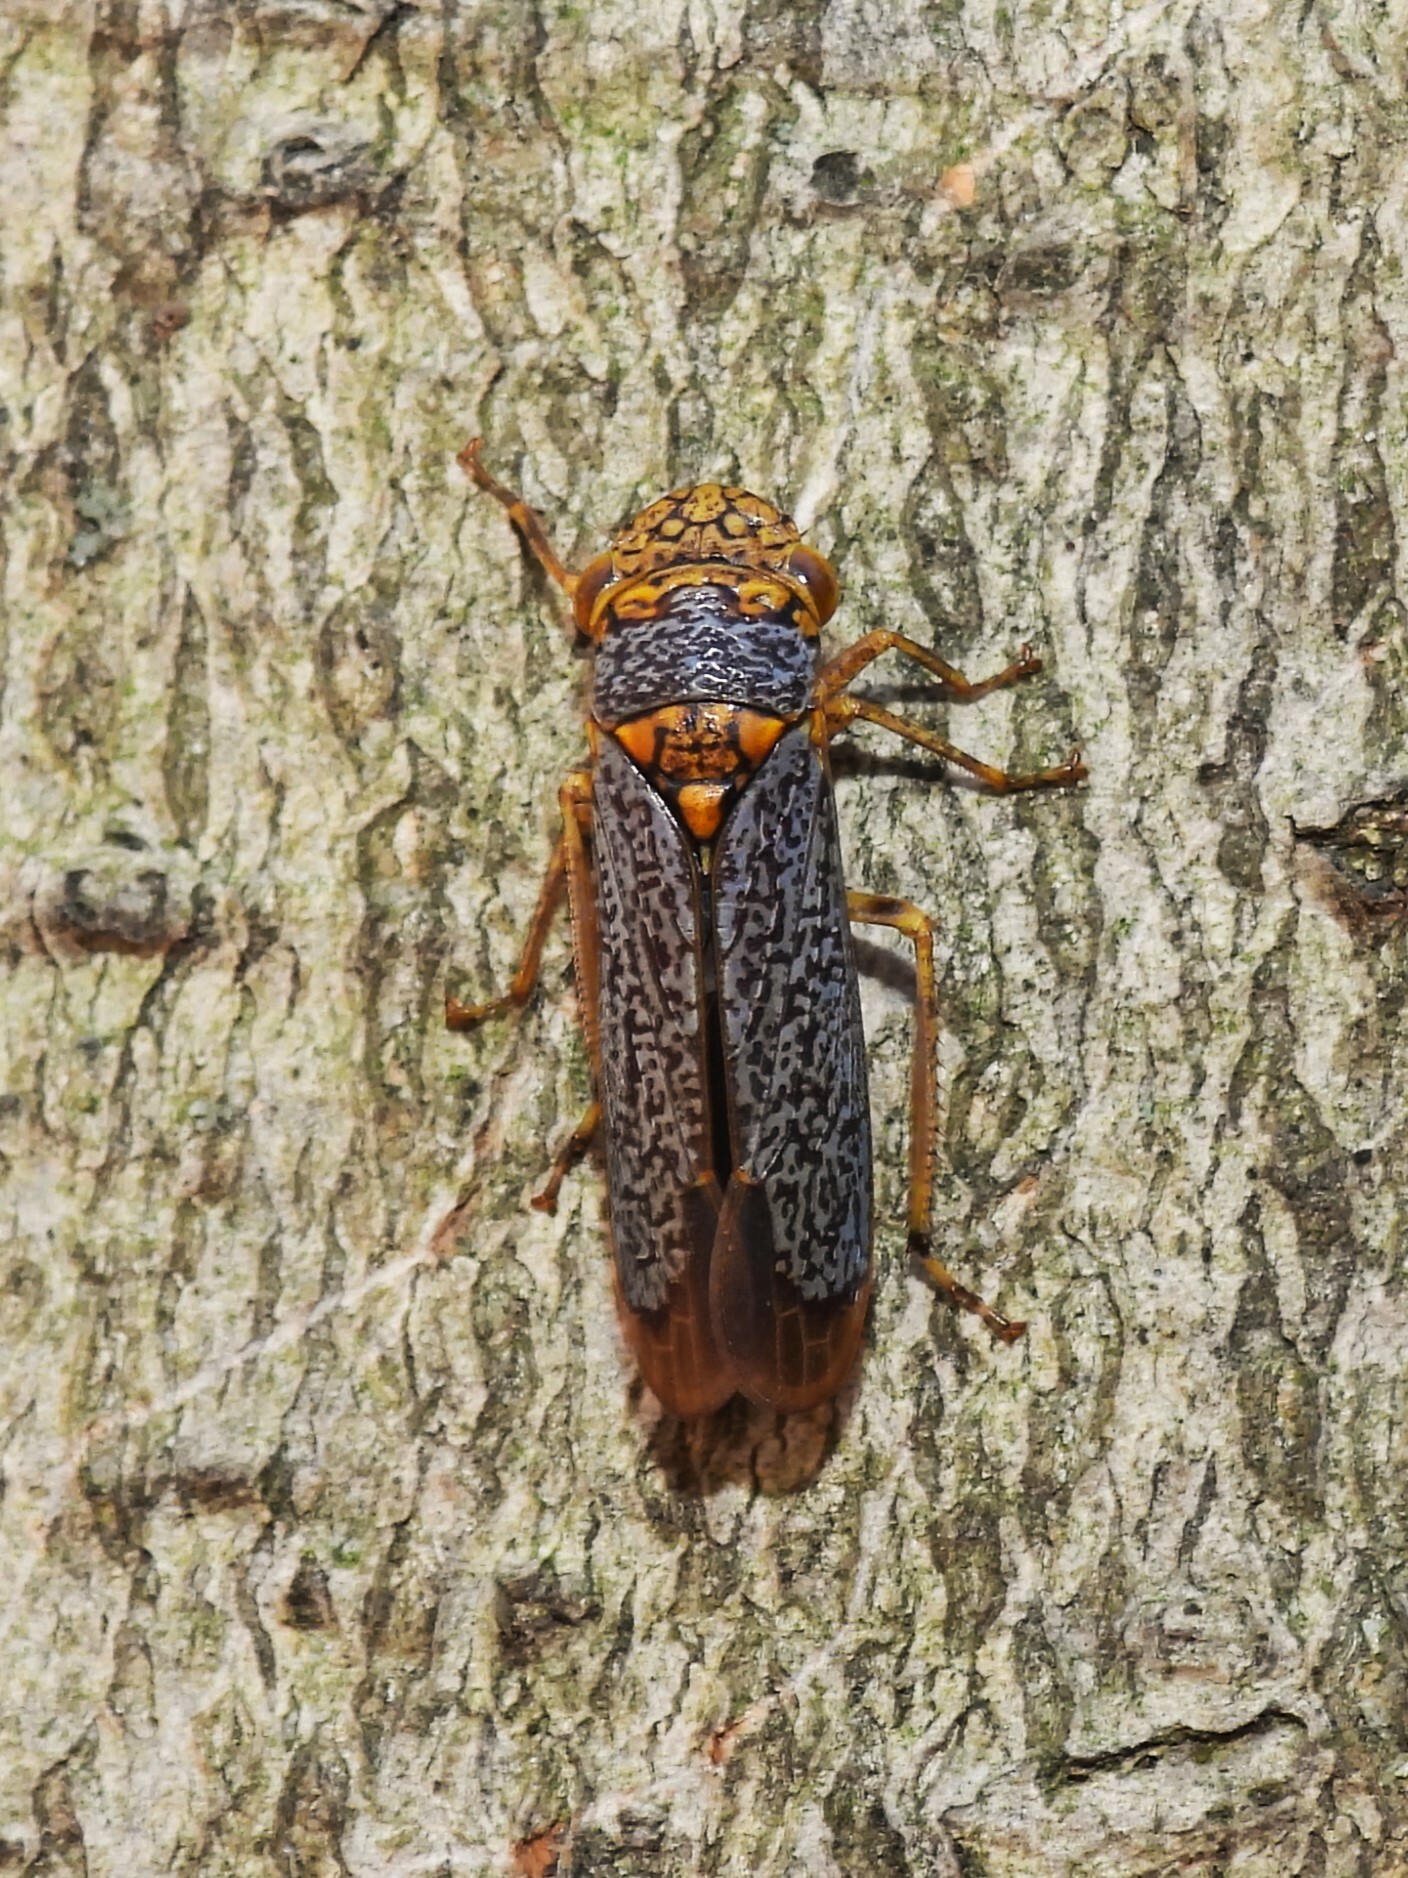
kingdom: Animalia
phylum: Arthropoda
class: Insecta
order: Hemiptera
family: Cicadellidae
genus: Oncometopia
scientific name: Oncometopia orbona
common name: Broad-headed sharpshooter
